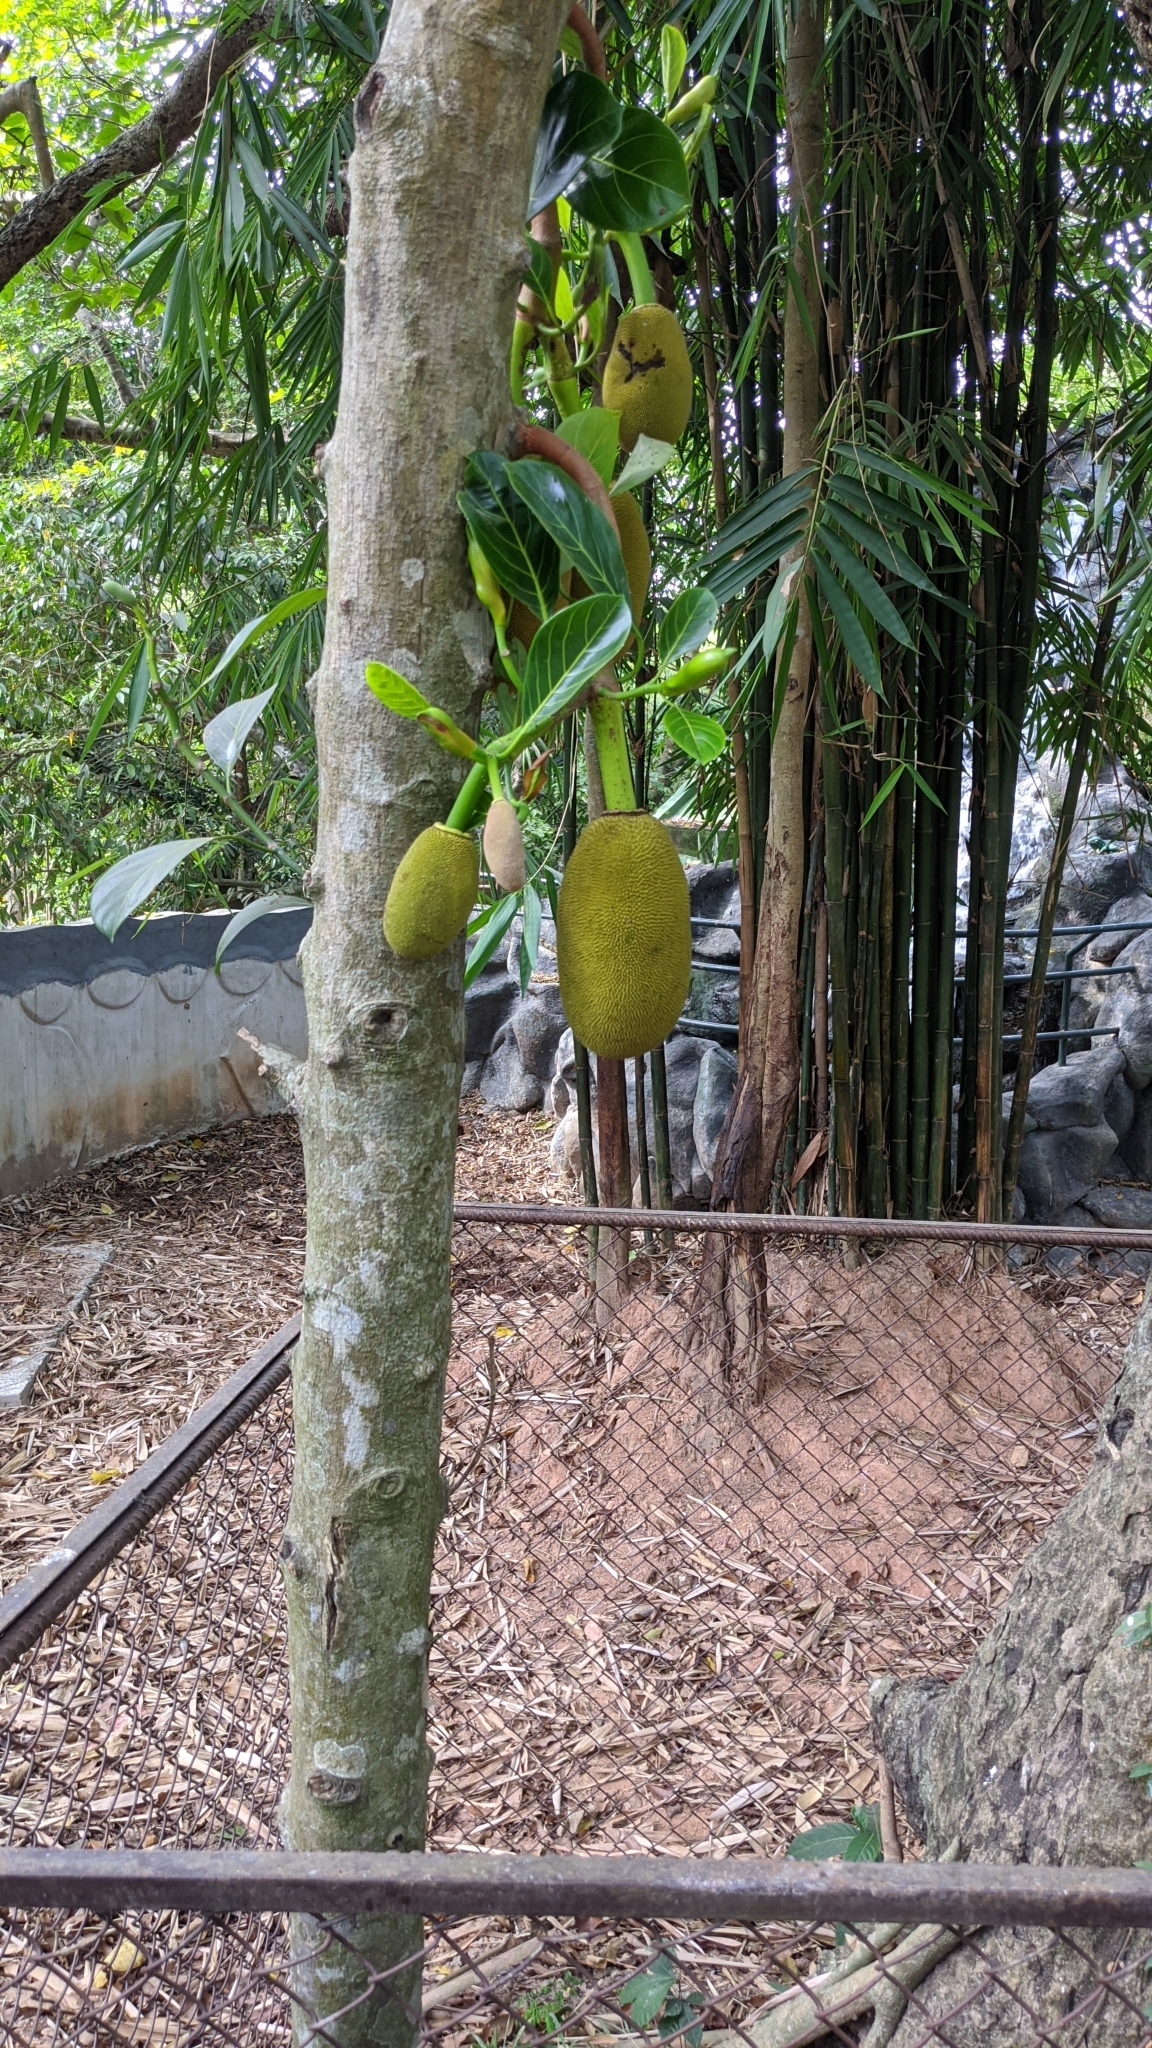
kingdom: Plantae
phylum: Tracheophyta
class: Magnoliopsida
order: Rosales
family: Moraceae
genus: Artocarpus
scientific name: Artocarpus heterophyllus
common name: Jackfruit
